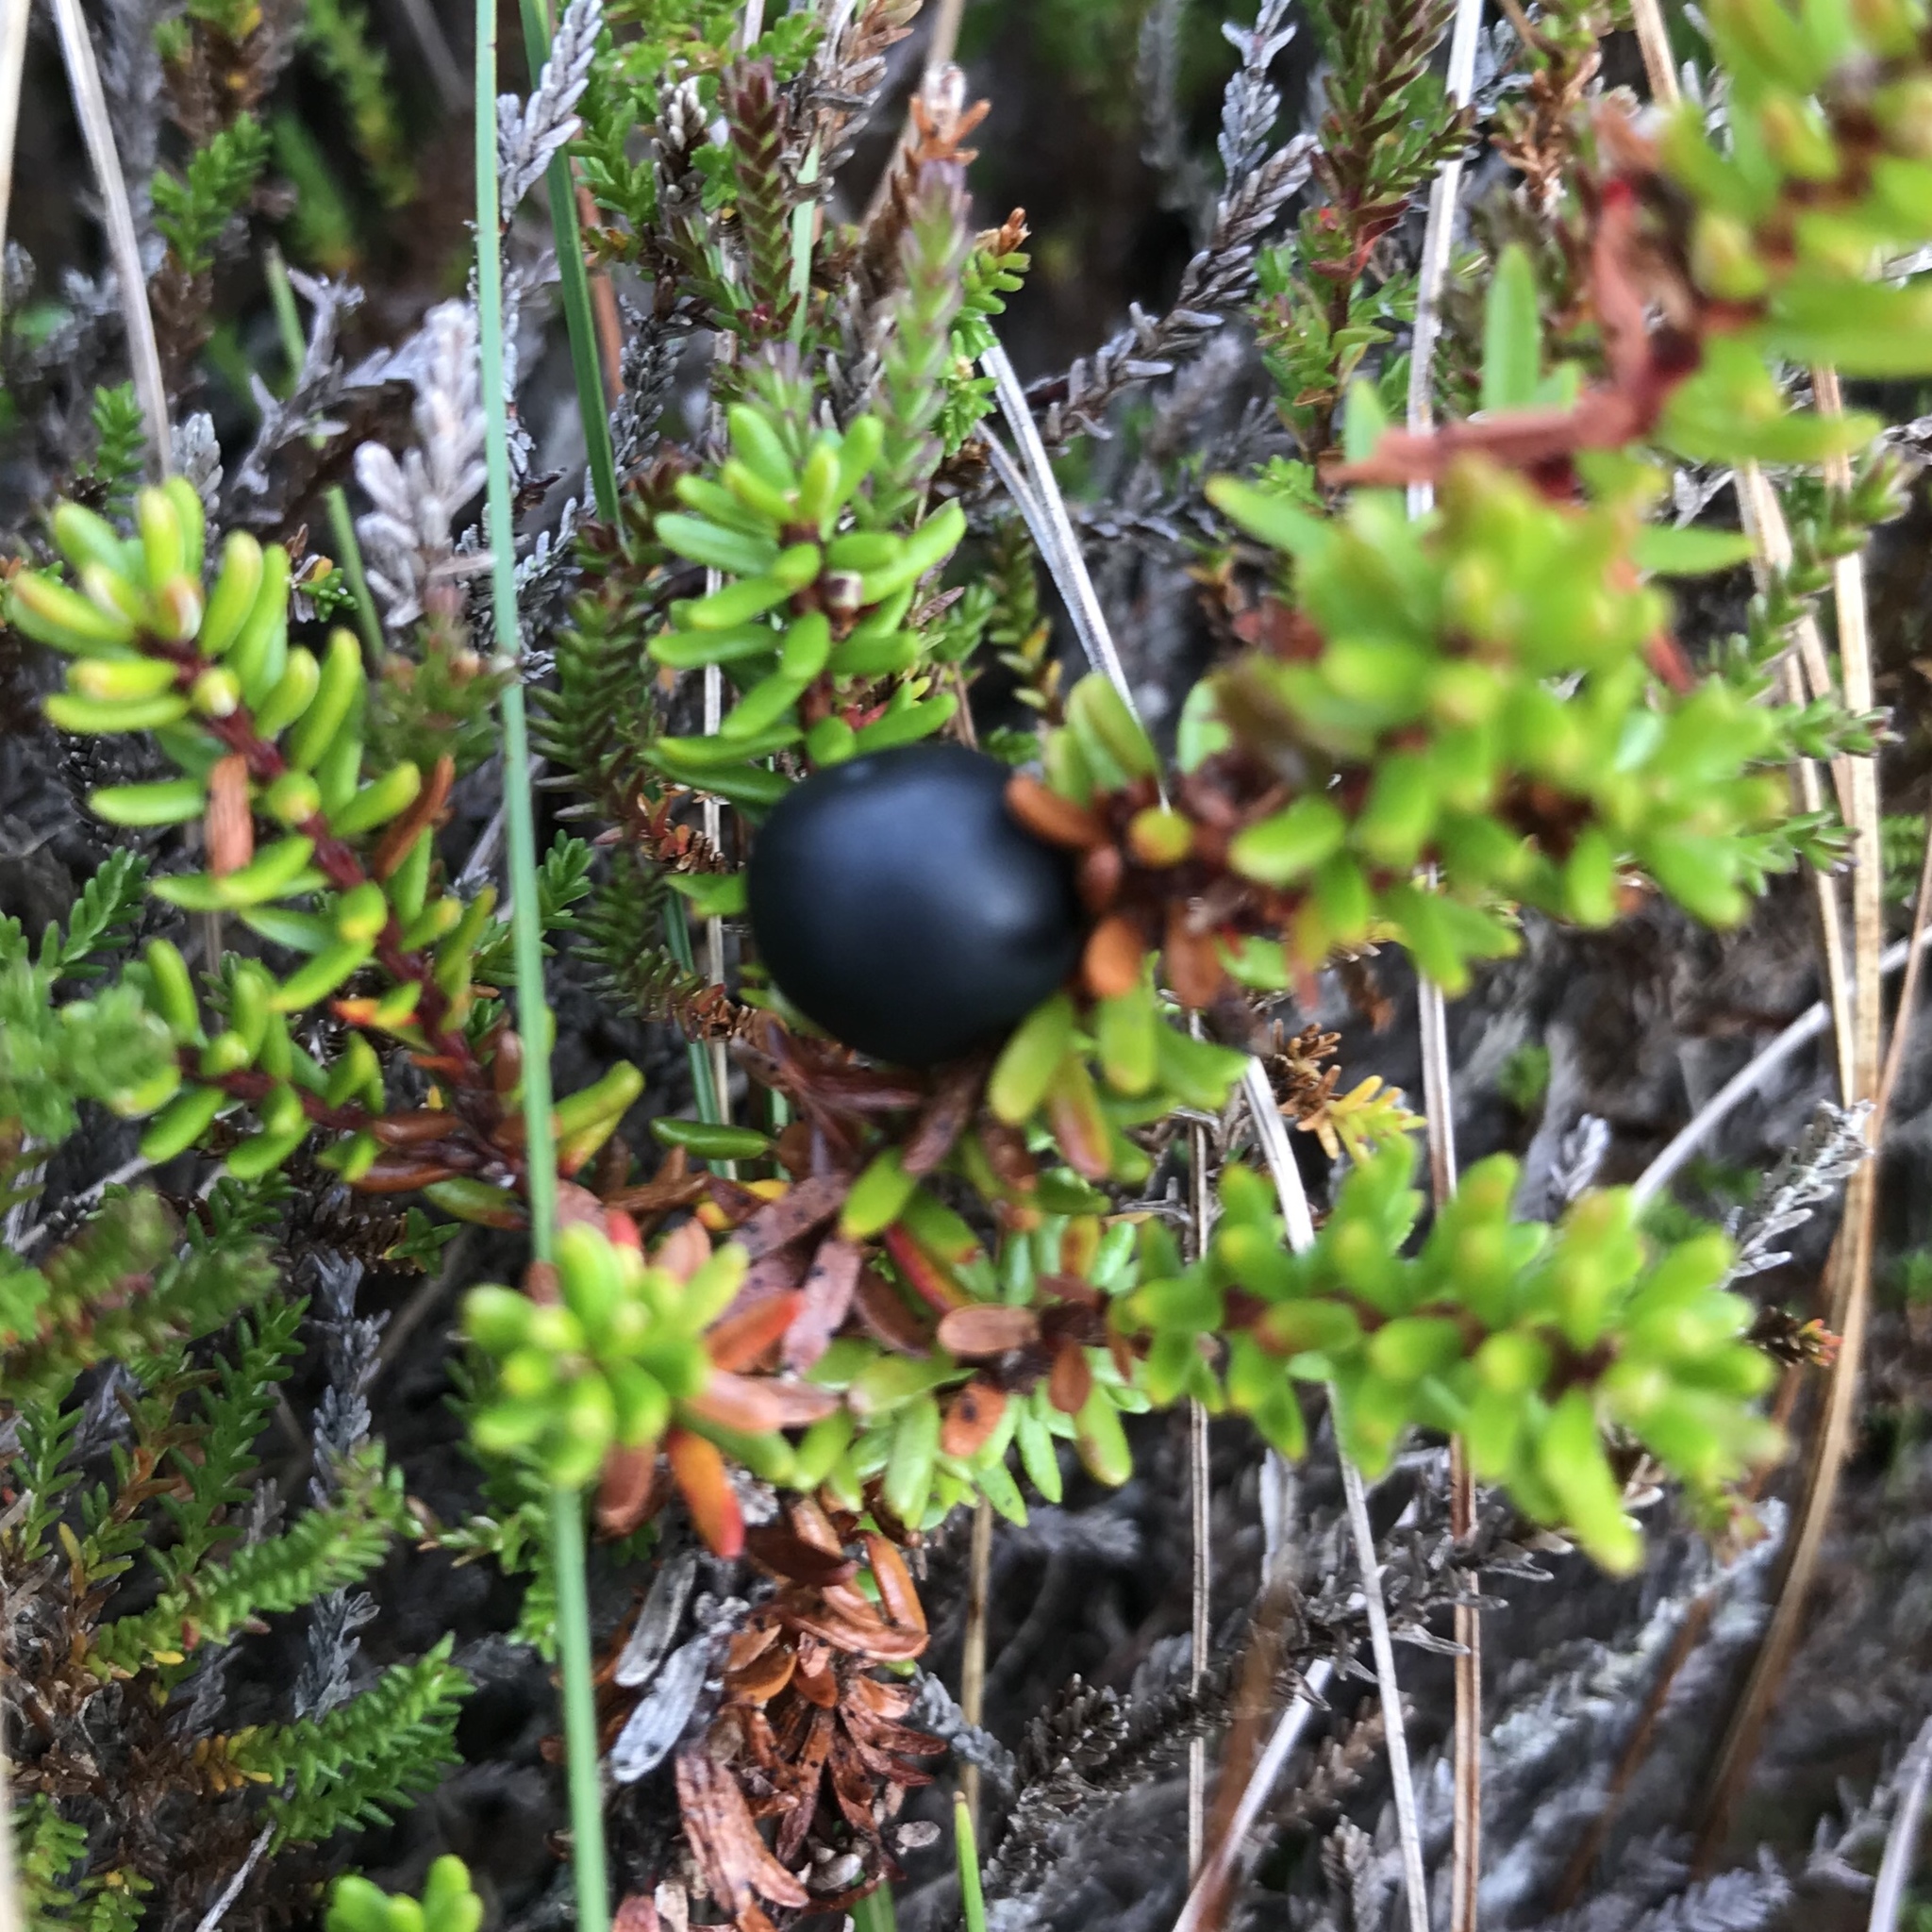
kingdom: Plantae
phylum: Tracheophyta
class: Magnoliopsida
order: Ericales
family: Ericaceae
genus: Empetrum
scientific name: Empetrum nigrum
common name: Black crowberry
